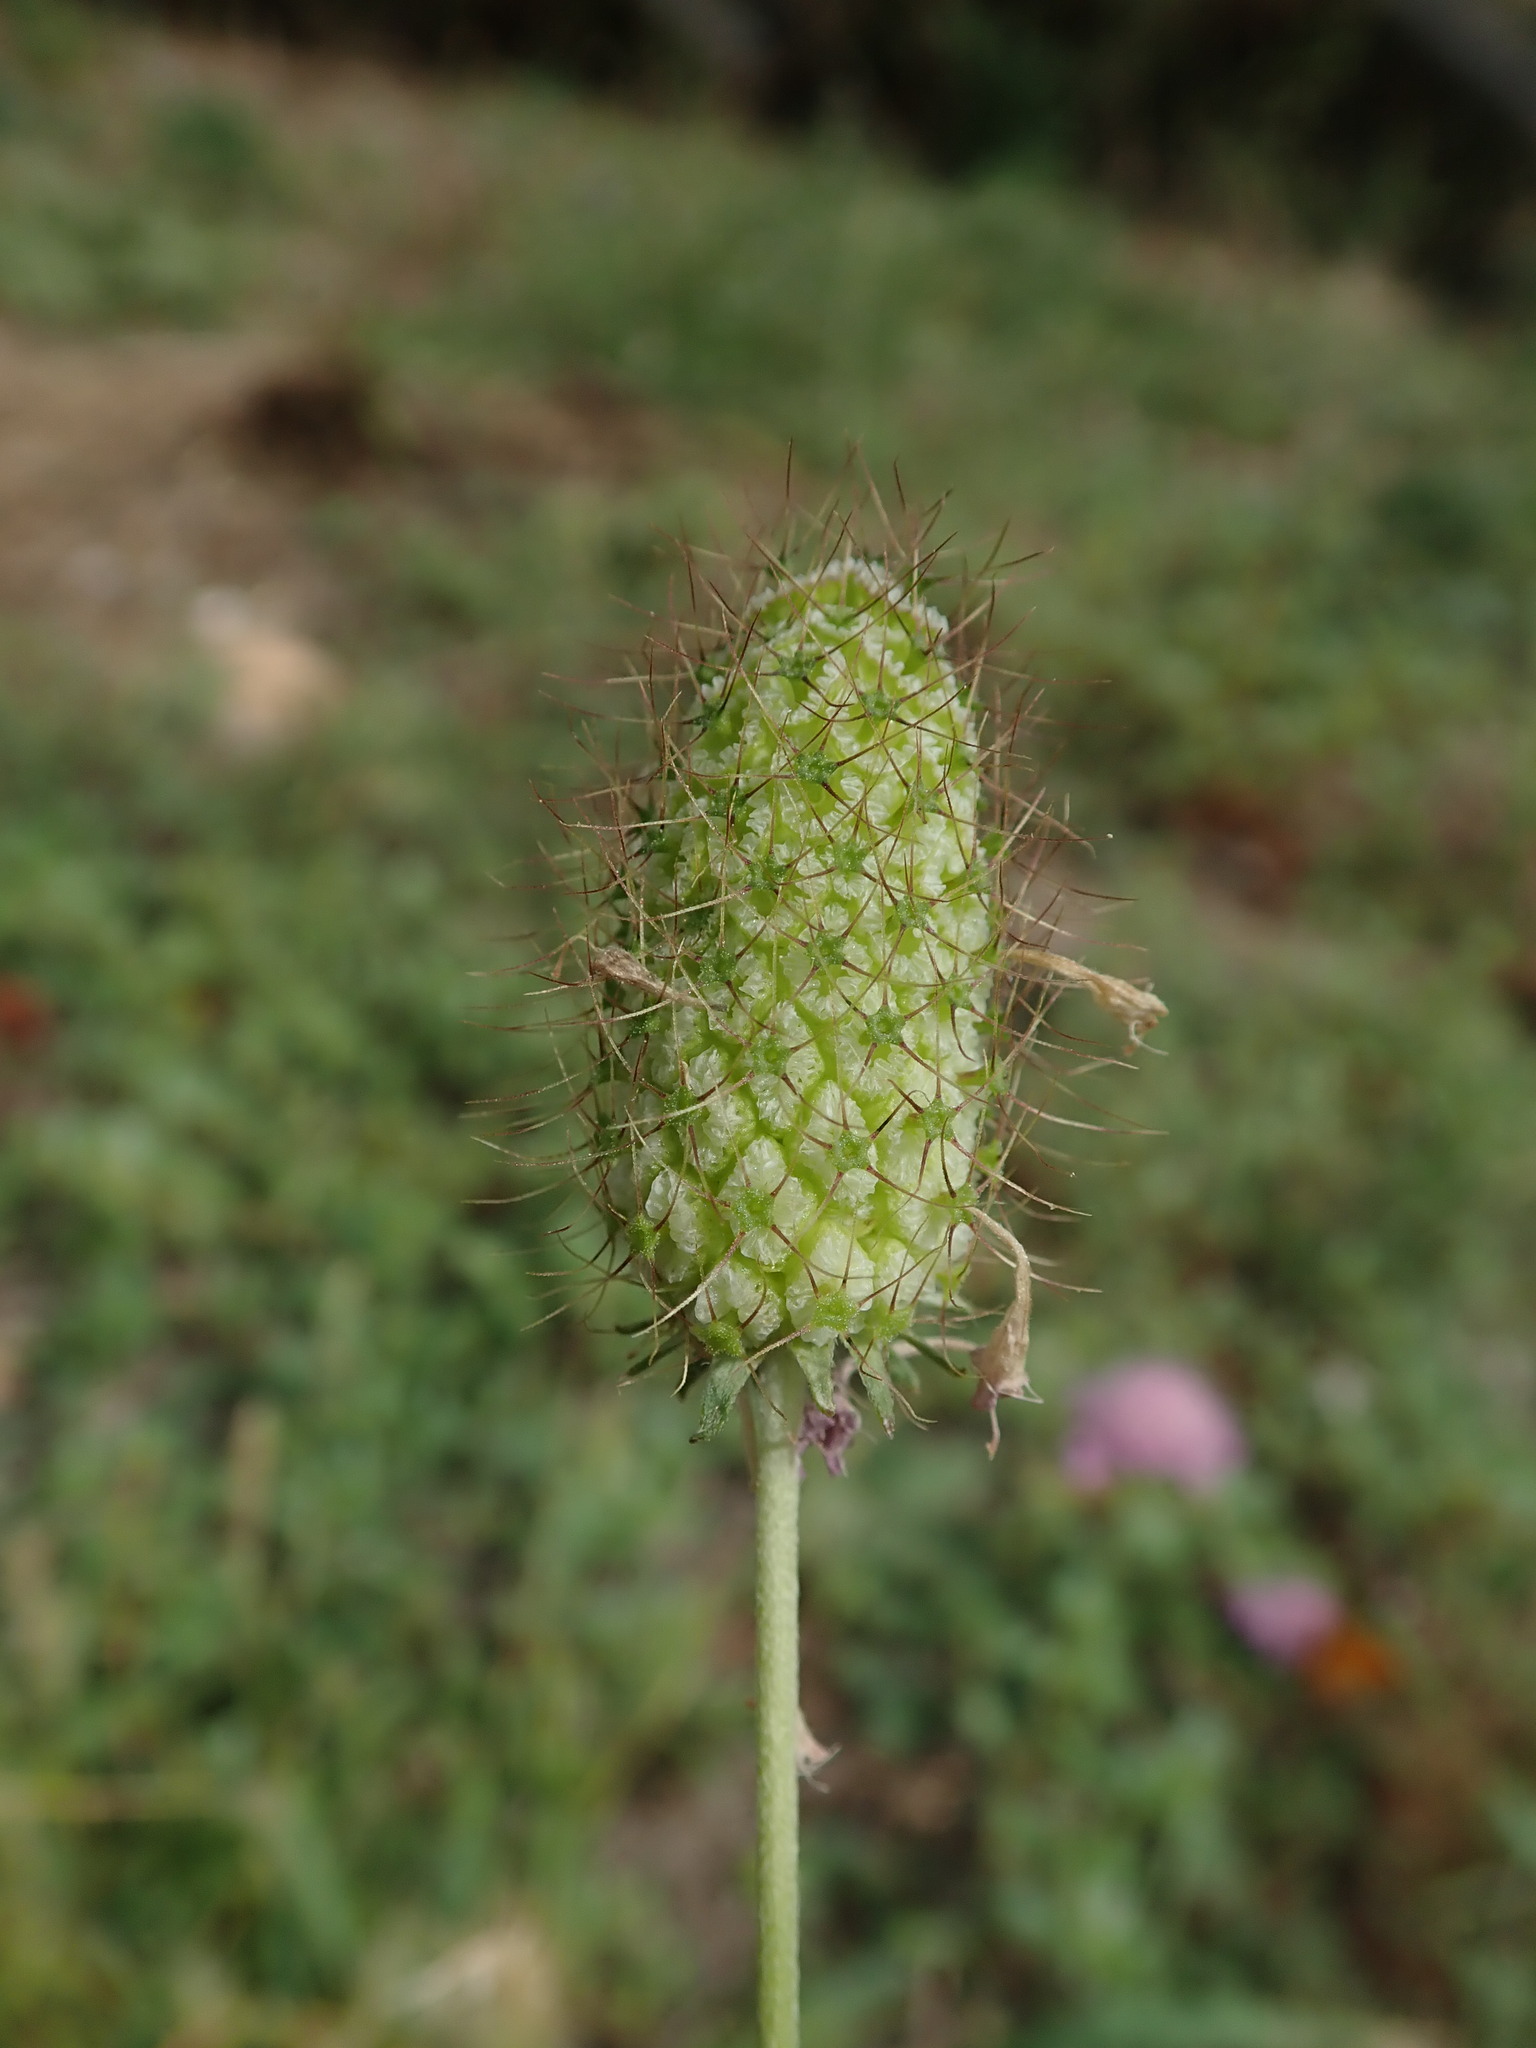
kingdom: Plantae
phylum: Tracheophyta
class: Magnoliopsida
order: Dipsacales
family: Caprifoliaceae
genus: Sixalix
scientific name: Sixalix atropurpurea
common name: Sweet scabious
